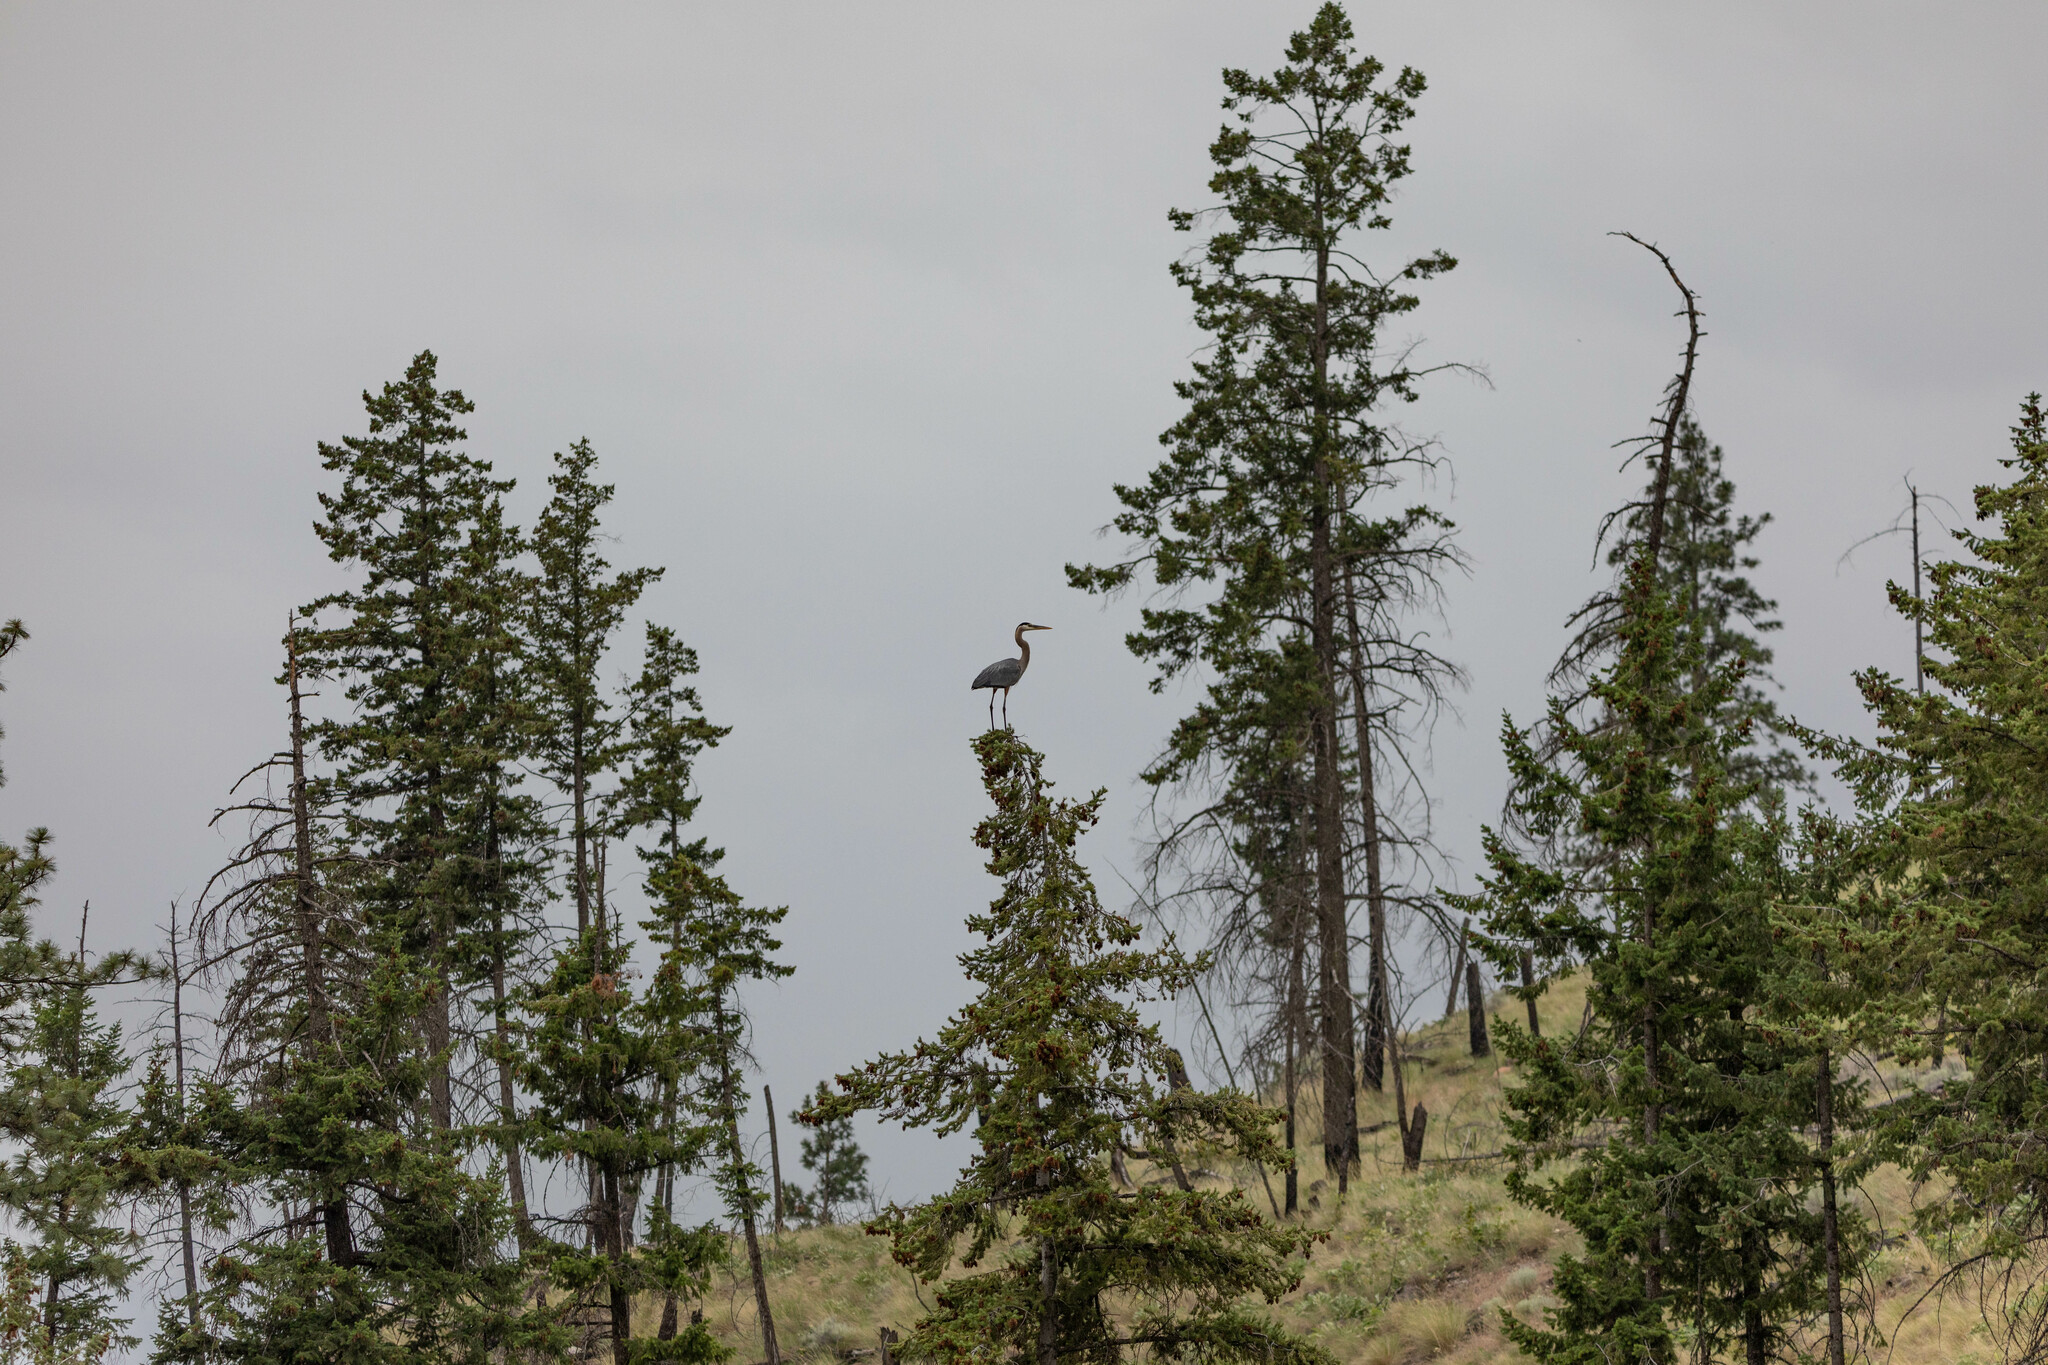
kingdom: Animalia
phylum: Chordata
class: Aves
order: Pelecaniformes
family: Ardeidae
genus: Ardea
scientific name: Ardea herodias
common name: Great blue heron
